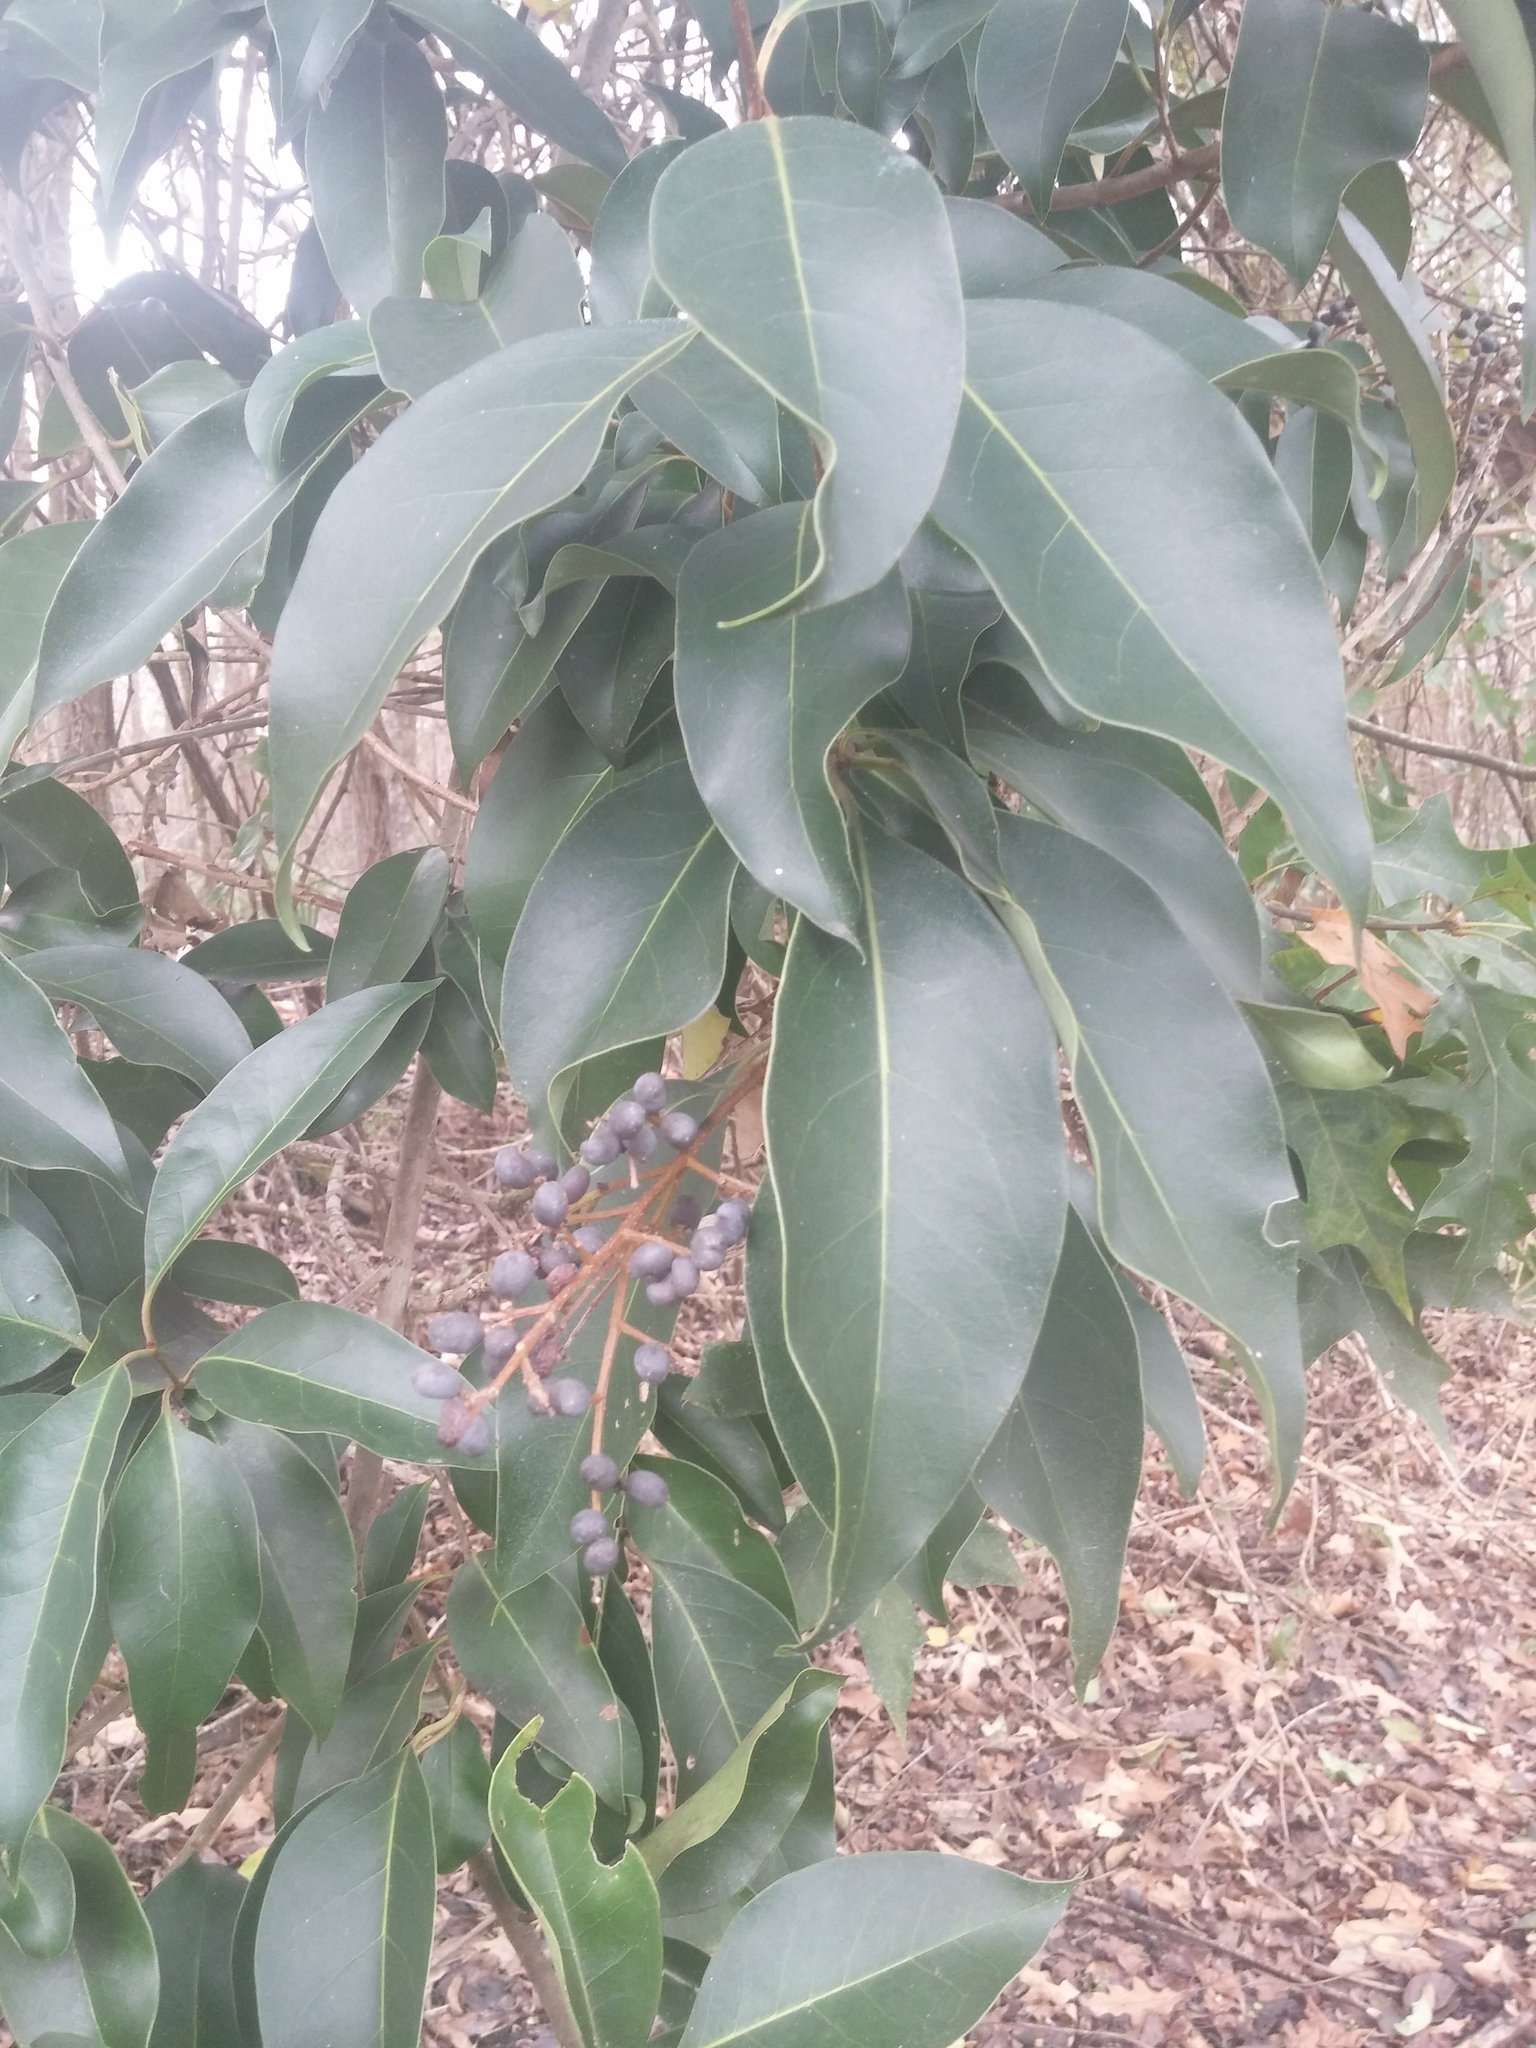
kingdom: Plantae
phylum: Tracheophyta
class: Magnoliopsida
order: Lamiales
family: Oleaceae
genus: Ligustrum
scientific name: Ligustrum lucidum
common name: Glossy privet
